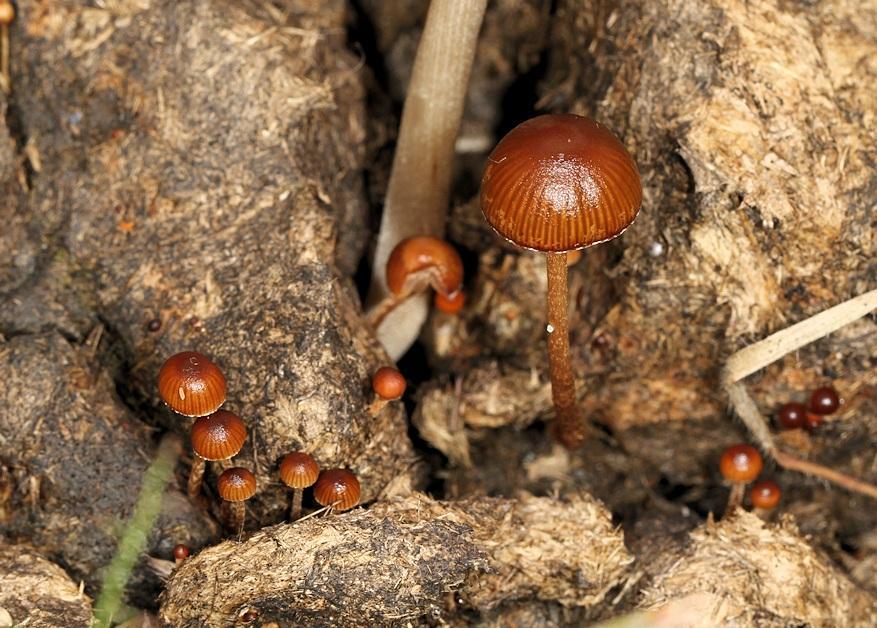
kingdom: Fungi
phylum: Basidiomycota
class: Agaricomycetes
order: Agaricales
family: Strophariaceae
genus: Protostropharia
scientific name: Protostropharia semiglobata
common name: Dung roundhead
